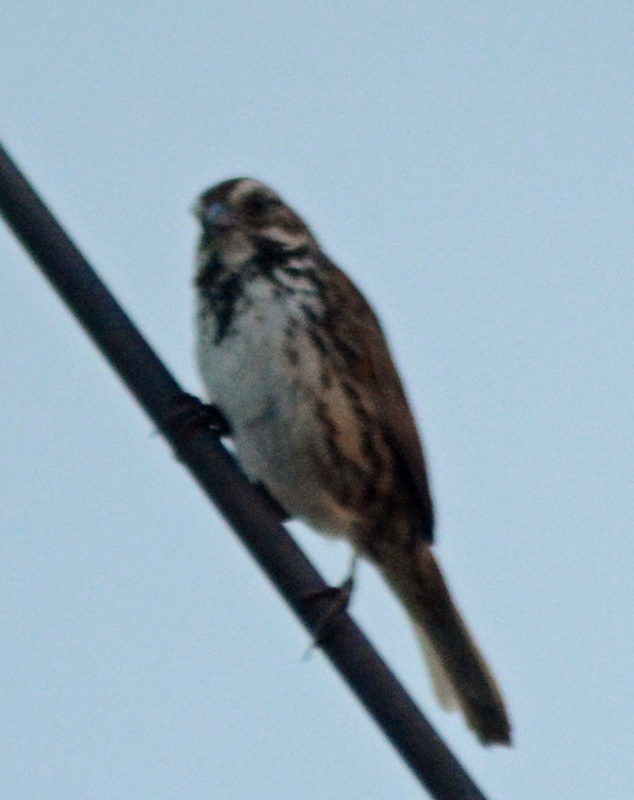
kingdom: Animalia
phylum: Chordata
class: Aves
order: Passeriformes
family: Passerellidae
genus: Melospiza
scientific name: Melospiza melodia
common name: Song sparrow
